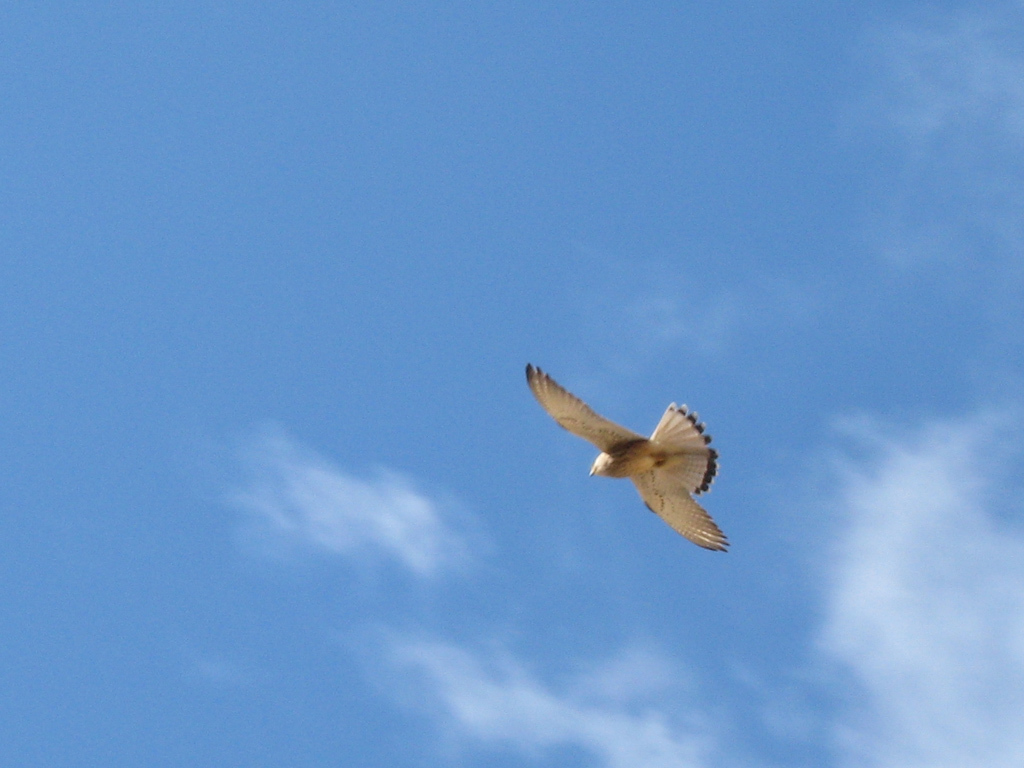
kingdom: Animalia
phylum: Chordata
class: Aves
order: Falconiformes
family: Falconidae
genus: Falco
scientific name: Falco naumanni
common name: Lesser kestrel
